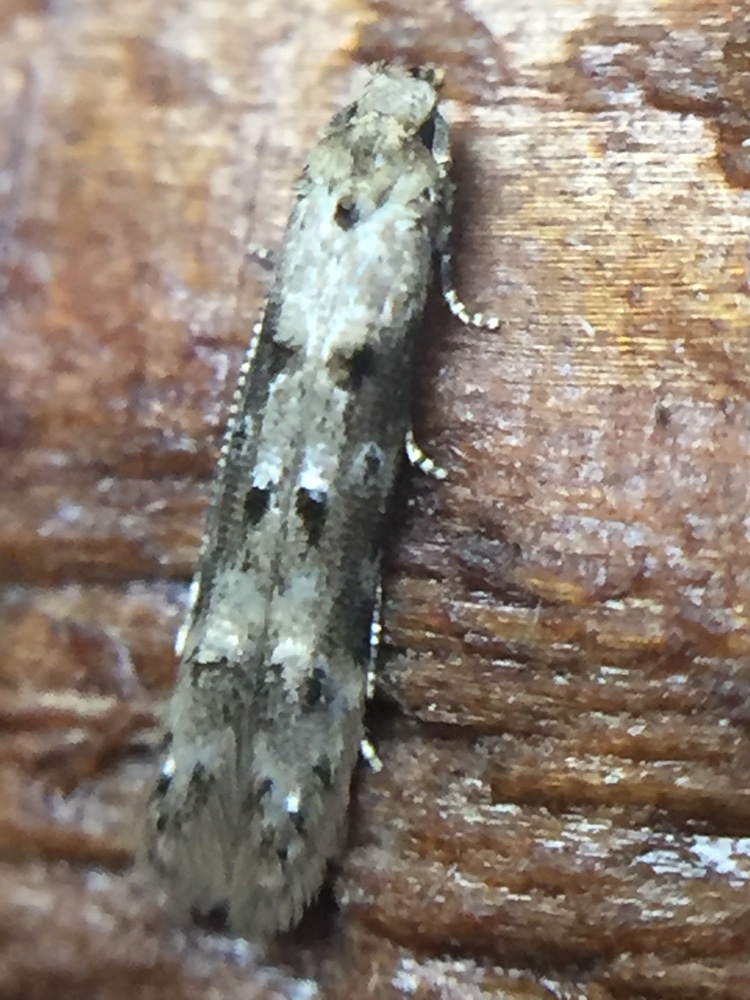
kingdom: Animalia
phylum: Arthropoda
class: Insecta
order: Lepidoptera
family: Elachistidae
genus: Microcolona
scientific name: Microcolona limodes
